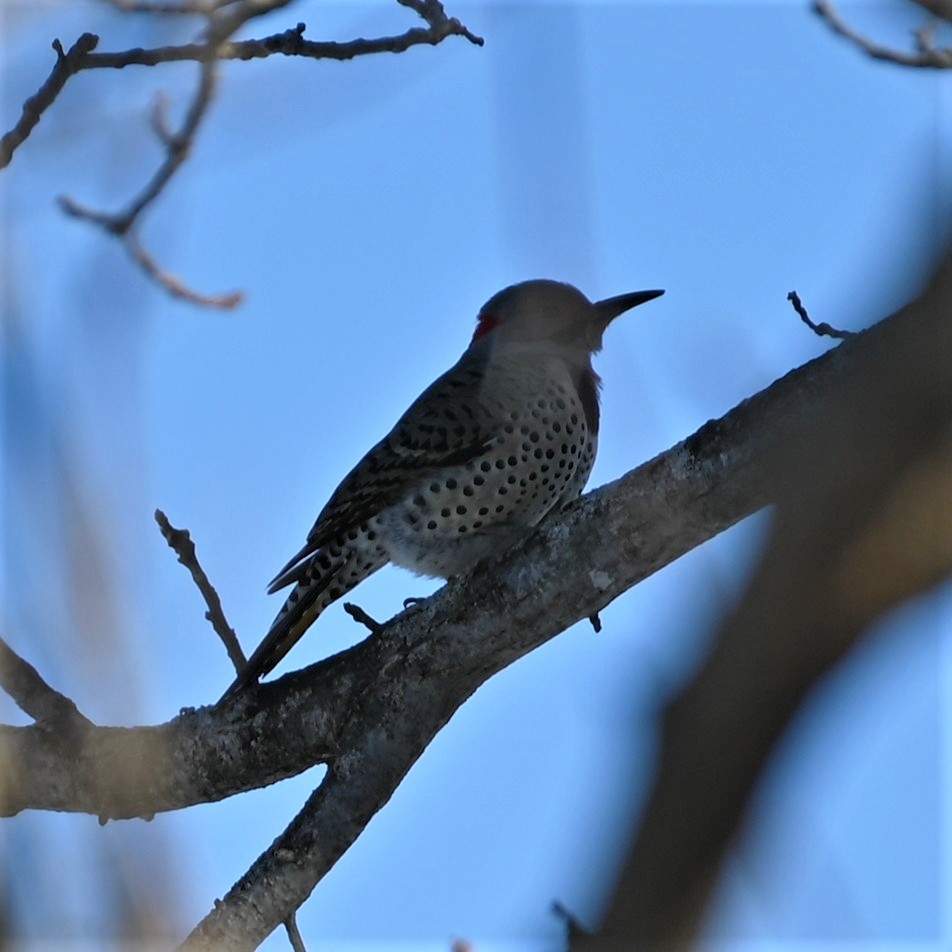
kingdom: Animalia
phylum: Chordata
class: Aves
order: Piciformes
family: Picidae
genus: Colaptes
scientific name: Colaptes auratus
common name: Northern flicker
